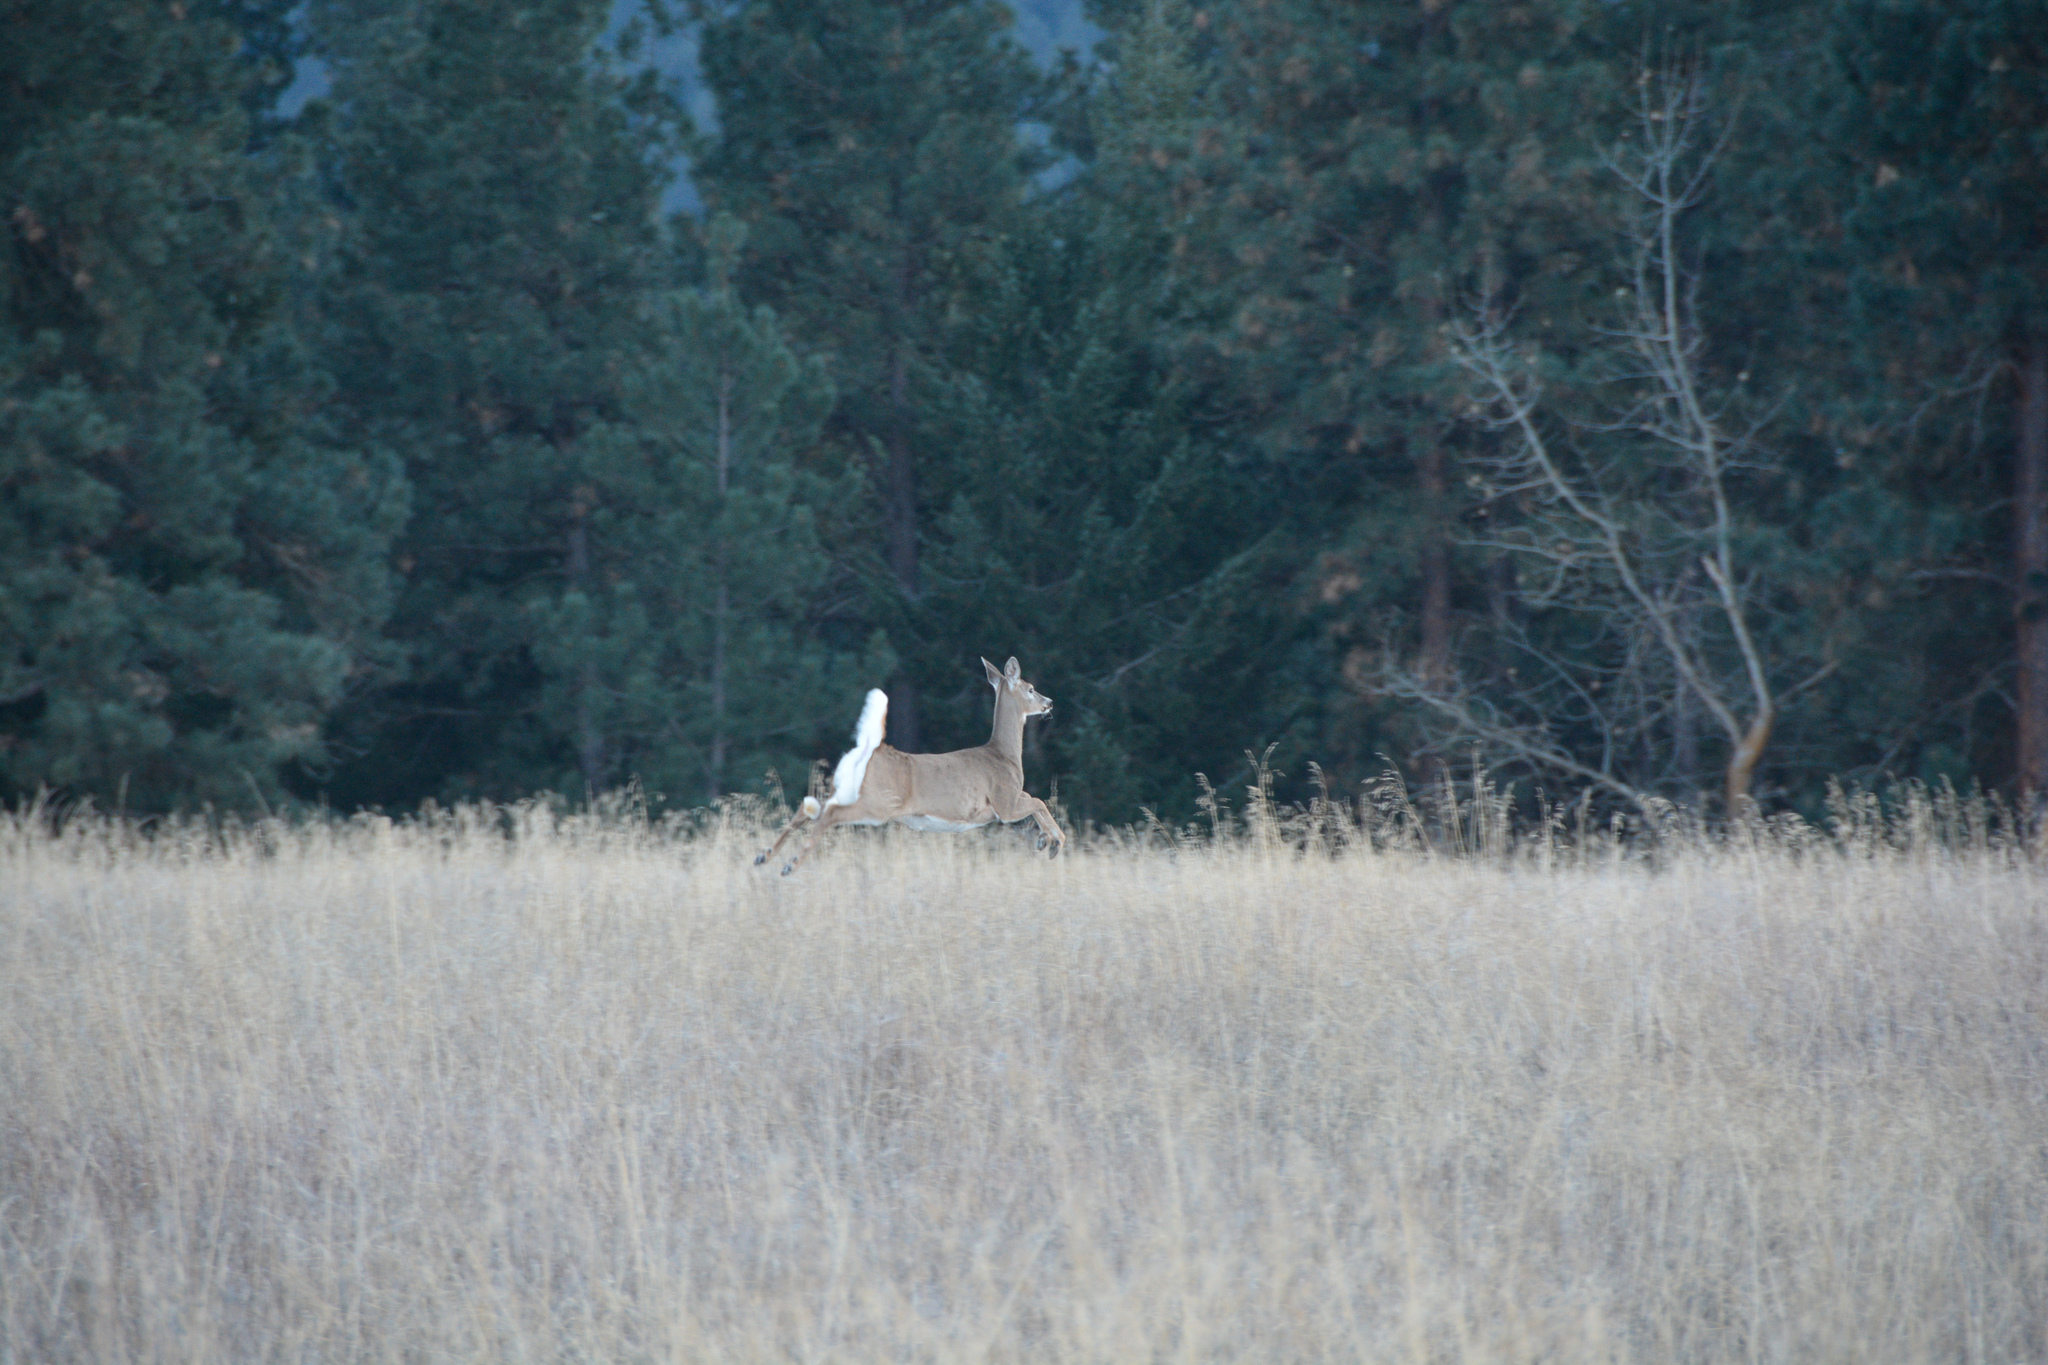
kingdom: Animalia
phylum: Chordata
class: Mammalia
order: Artiodactyla
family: Cervidae
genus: Odocoileus
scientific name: Odocoileus virginianus
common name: White-tailed deer
